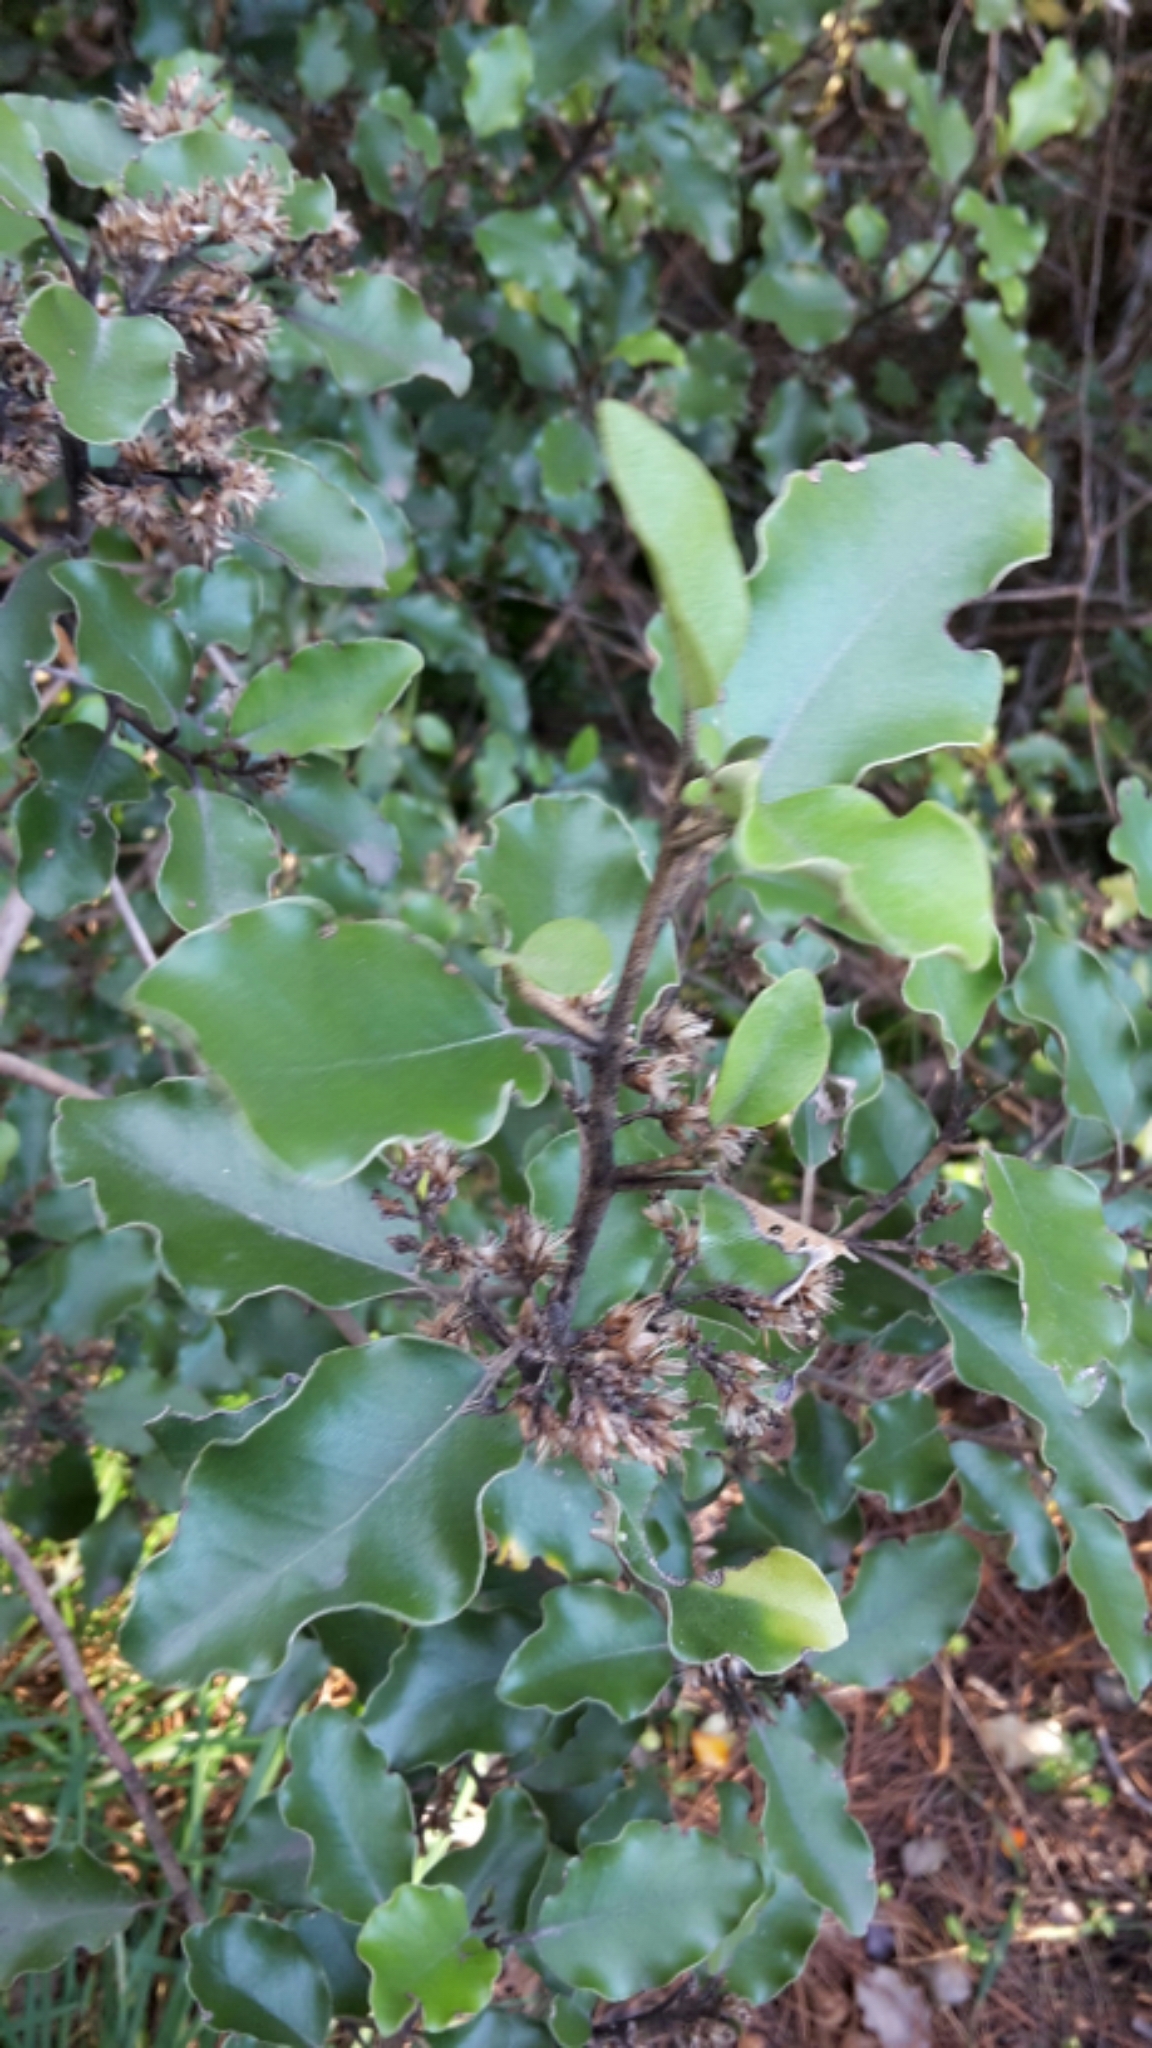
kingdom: Plantae
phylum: Tracheophyta
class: Magnoliopsida
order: Asterales
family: Asteraceae
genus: Olearia
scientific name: Olearia paniculata
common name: Akiraho
